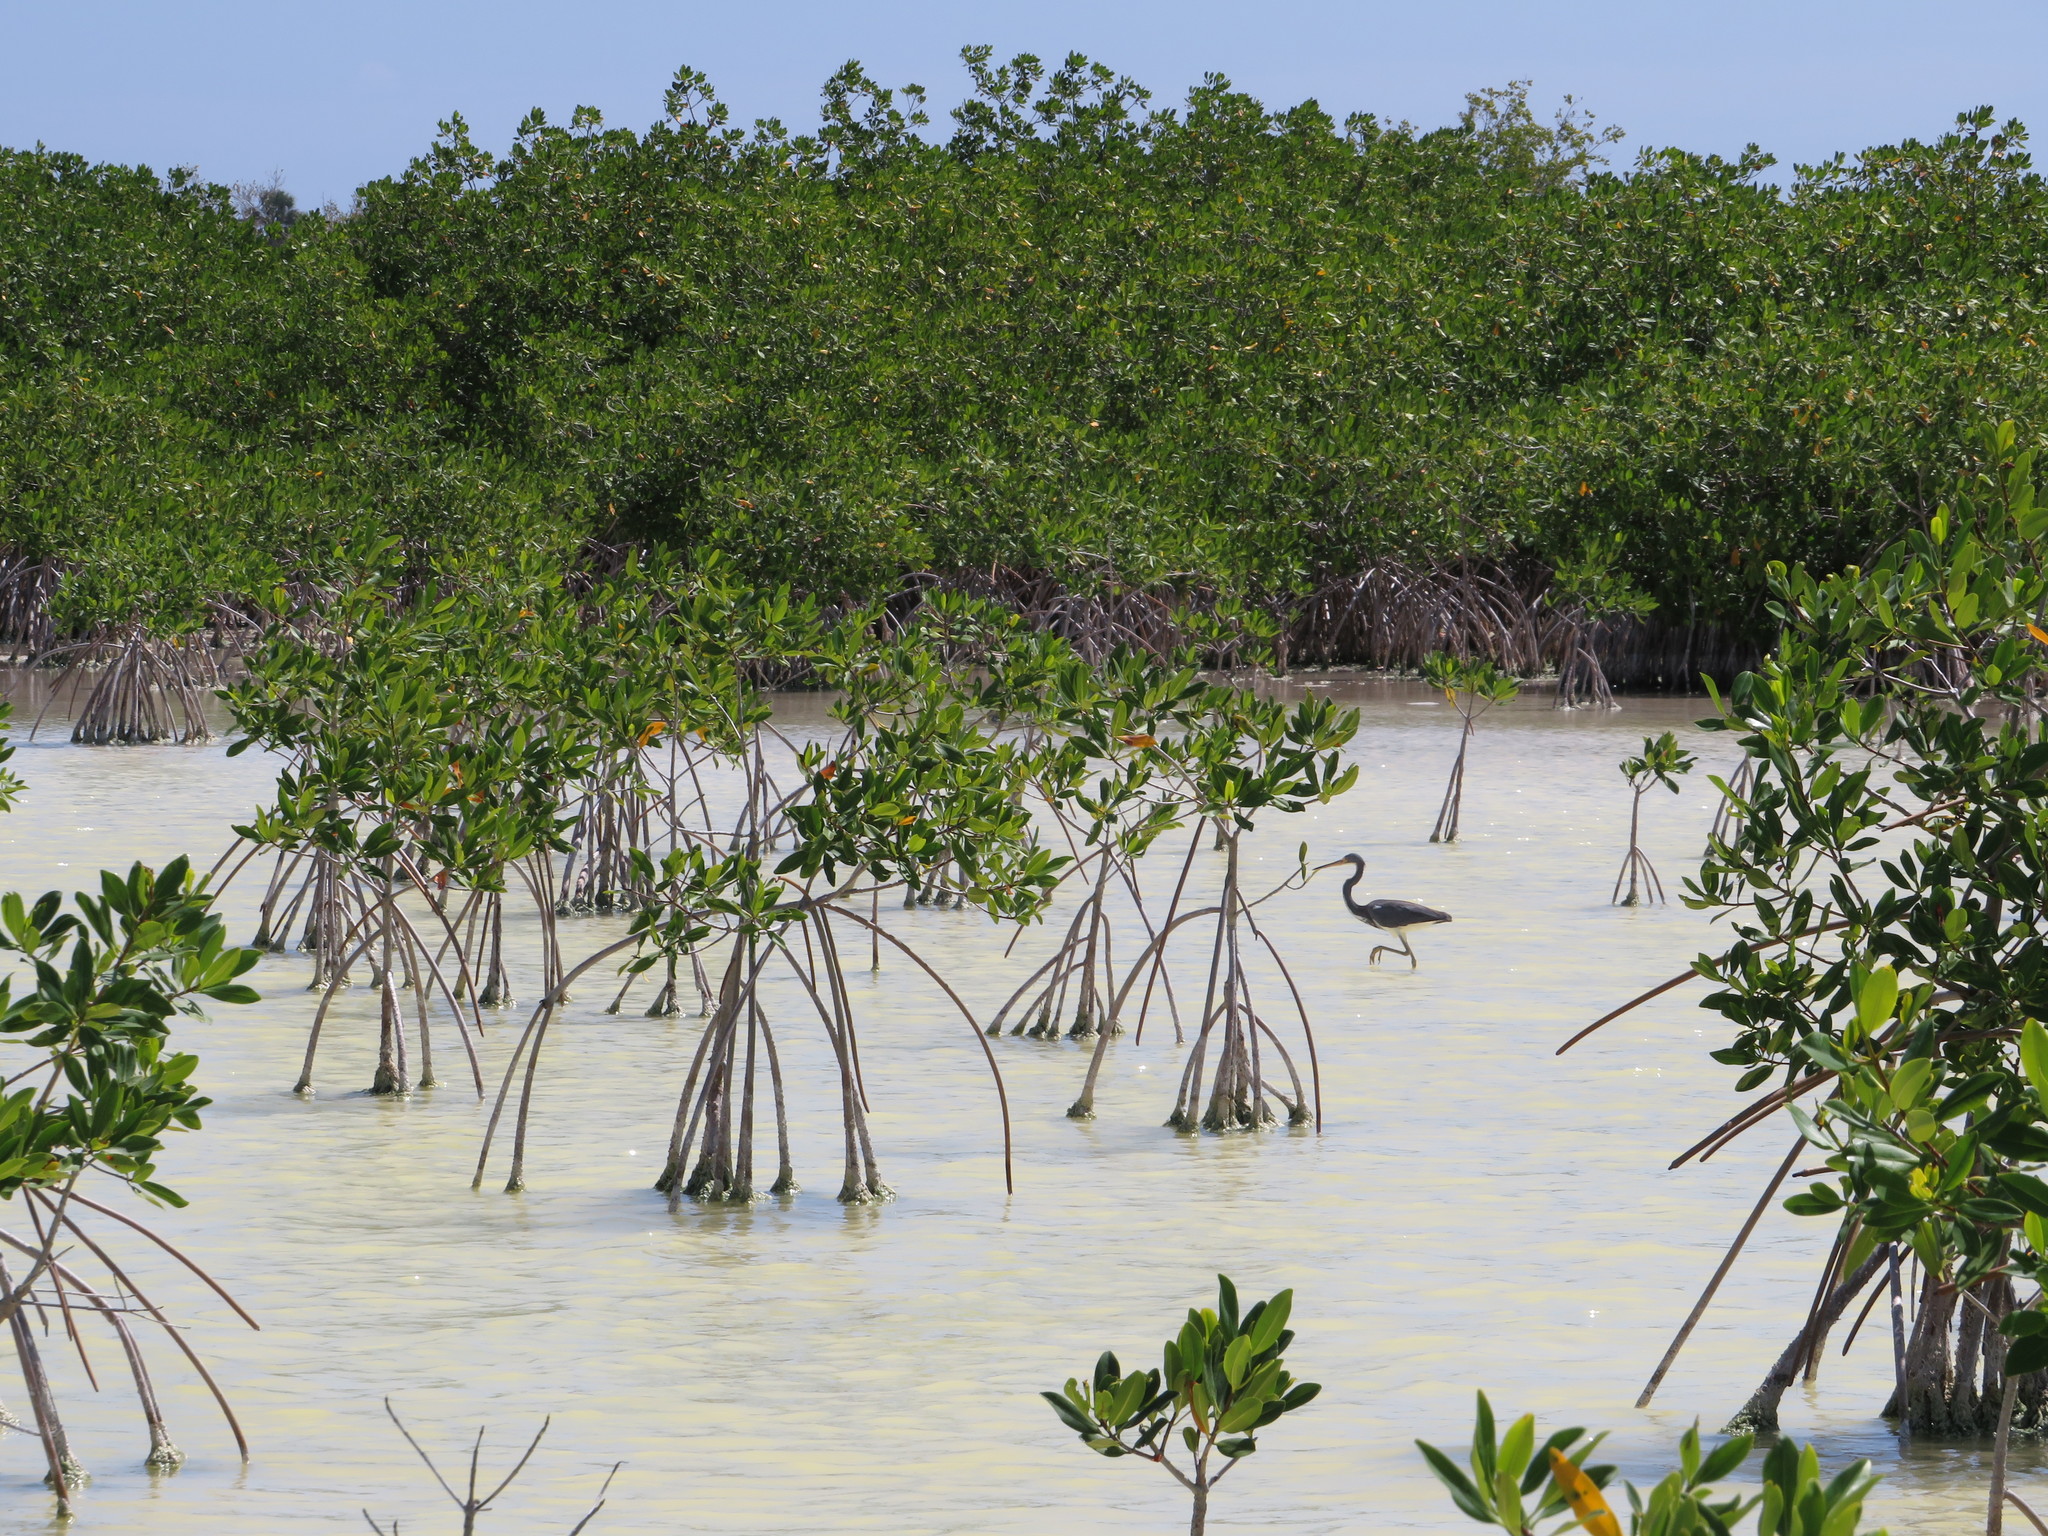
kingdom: Animalia
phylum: Chordata
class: Aves
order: Pelecaniformes
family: Ardeidae
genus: Egretta
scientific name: Egretta tricolor
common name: Tricolored heron
